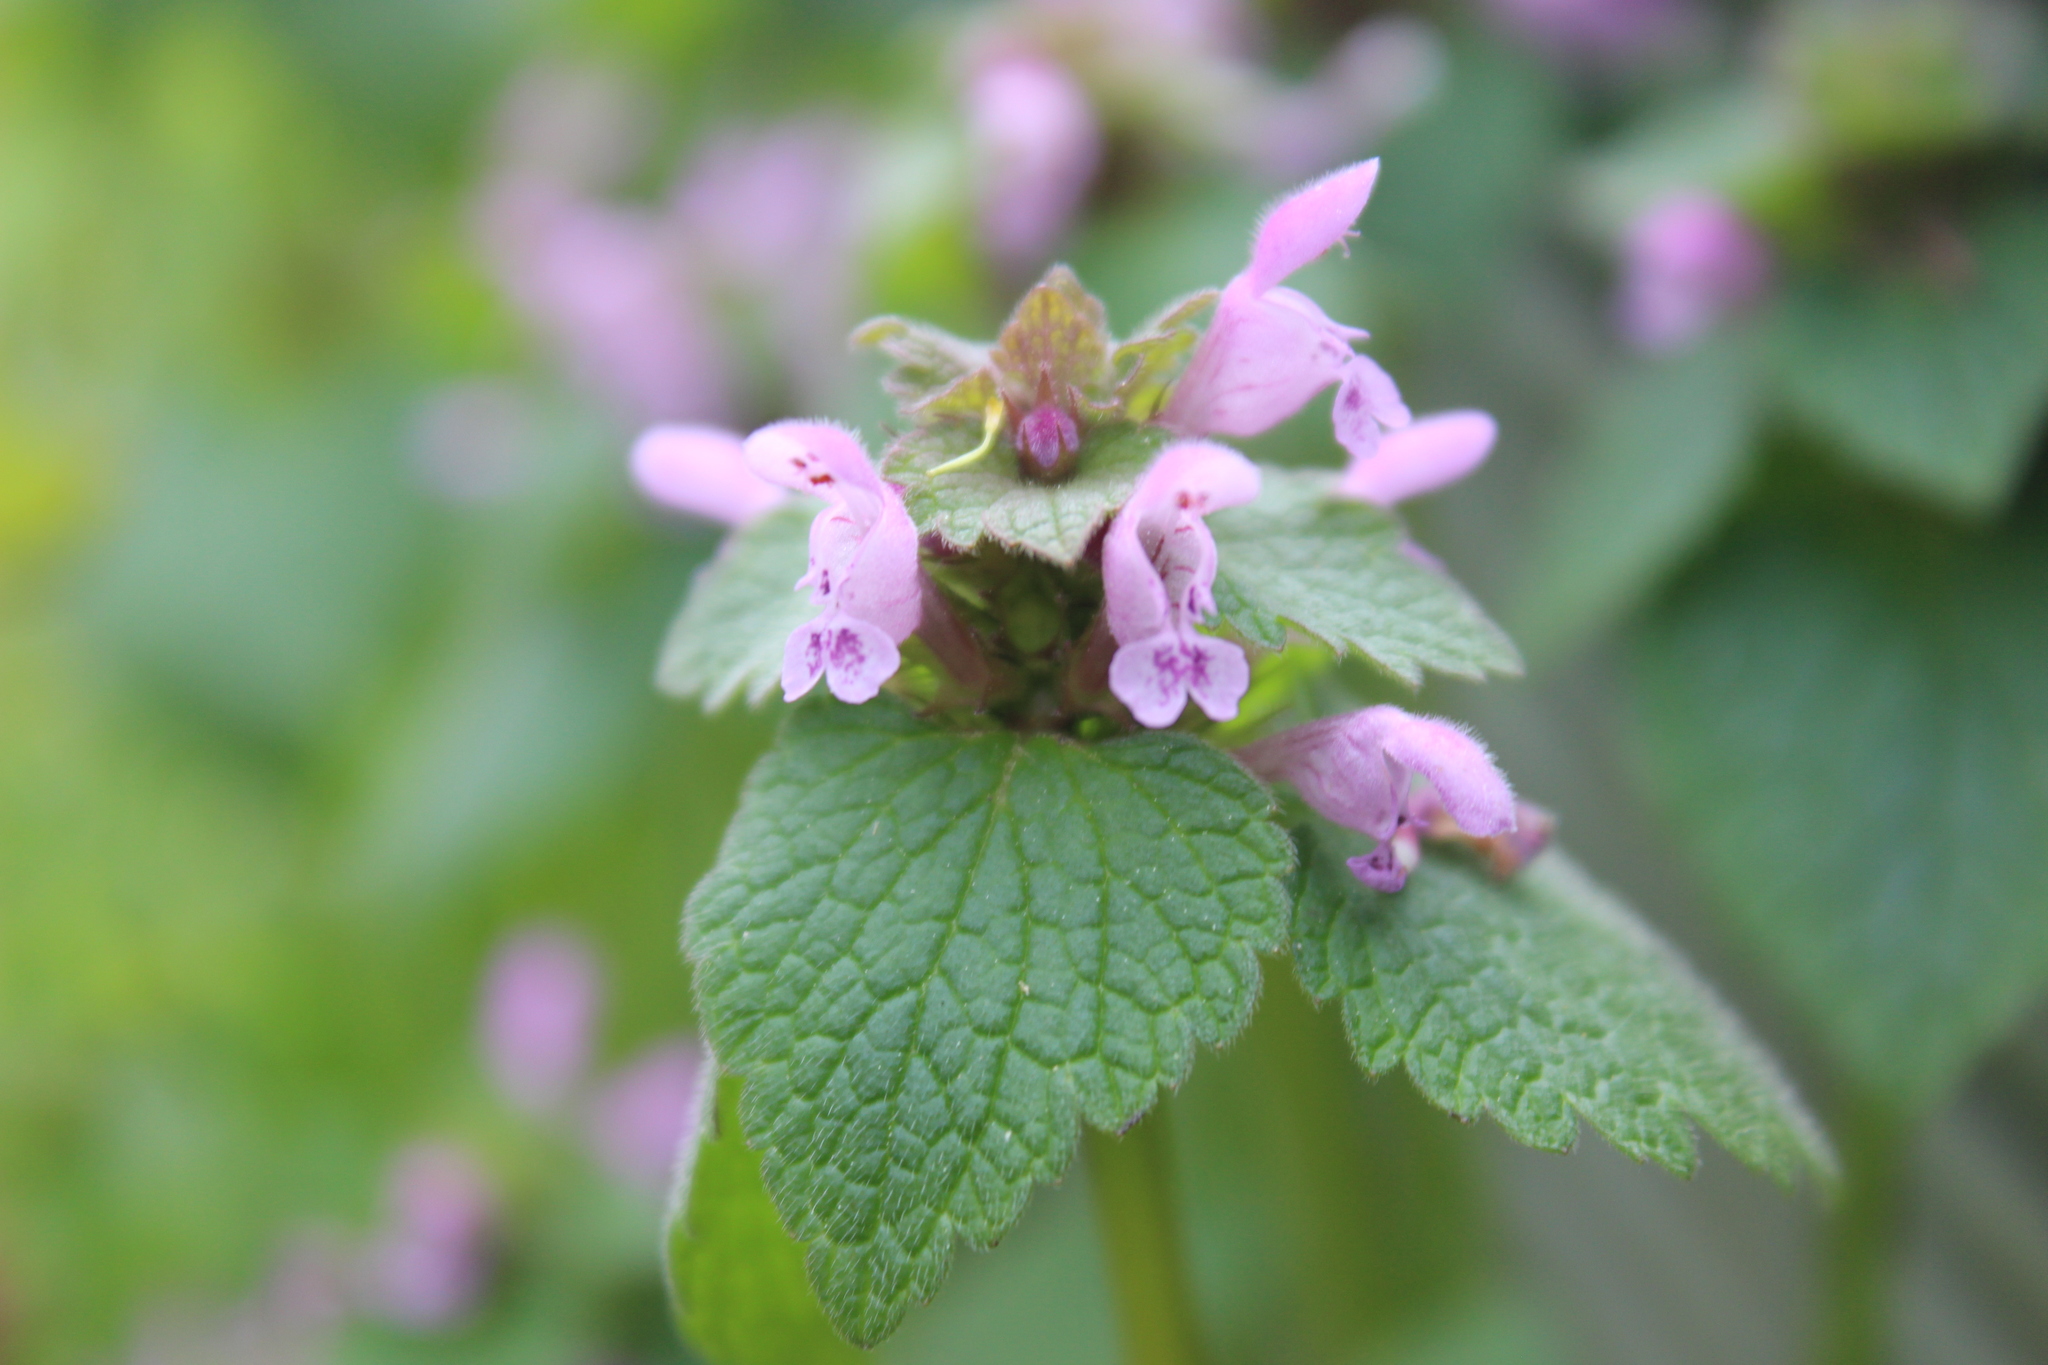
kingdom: Plantae
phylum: Tracheophyta
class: Magnoliopsida
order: Lamiales
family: Lamiaceae
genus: Lamium
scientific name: Lamium purpureum
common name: Red dead-nettle
